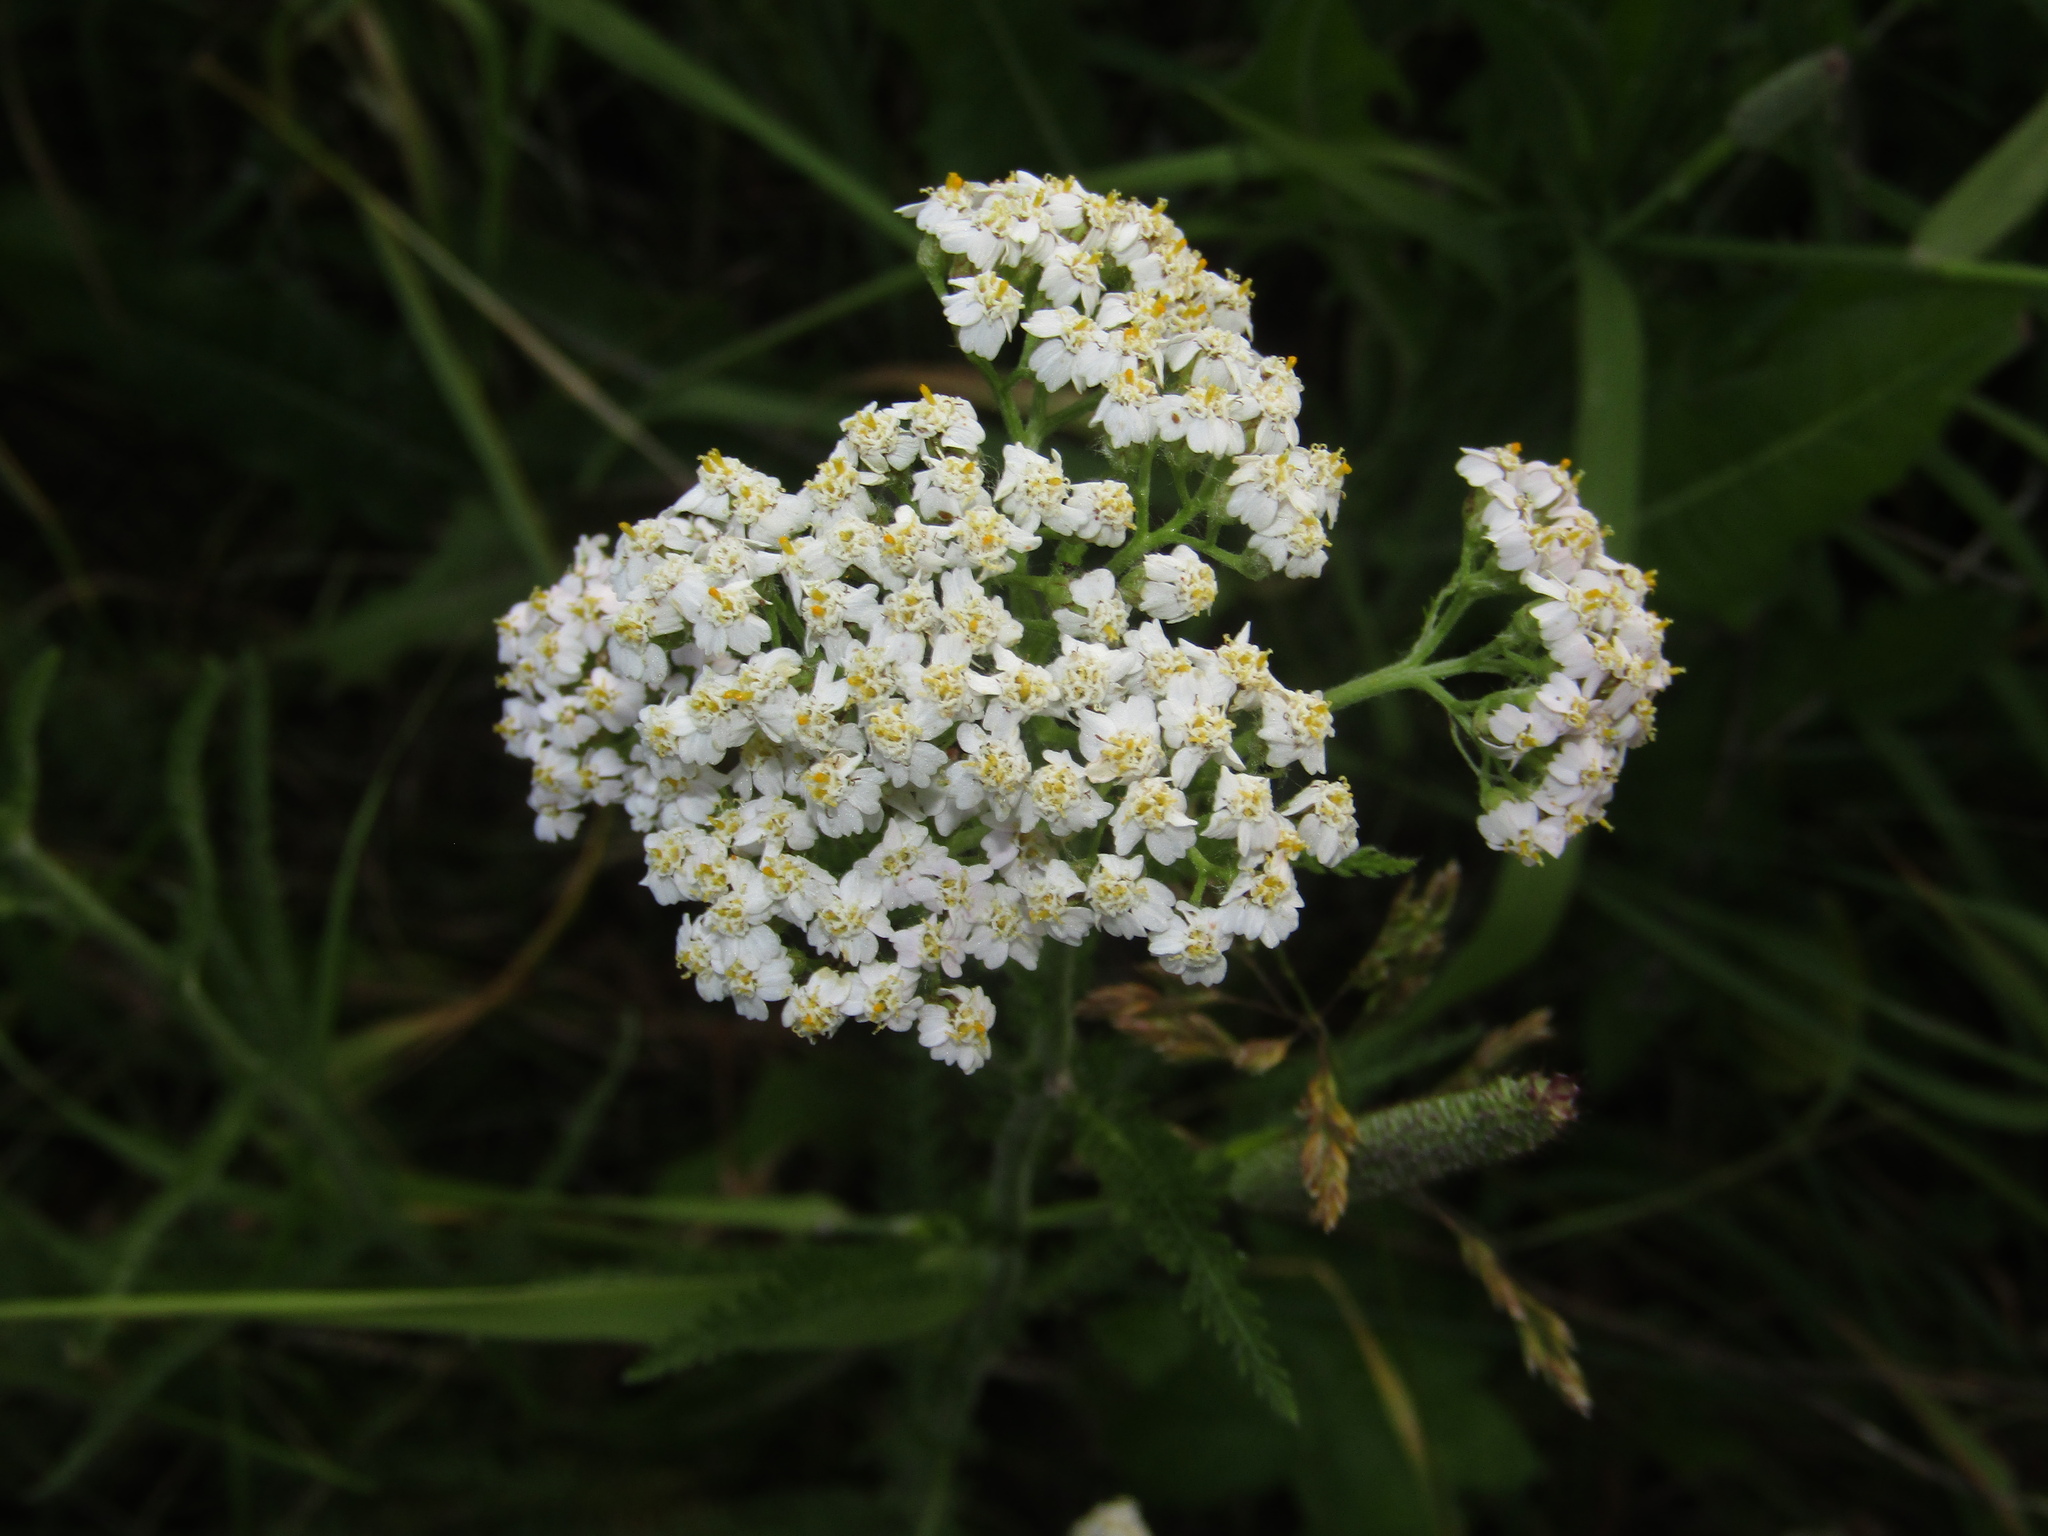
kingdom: Plantae
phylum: Tracheophyta
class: Magnoliopsida
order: Asterales
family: Asteraceae
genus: Achillea
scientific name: Achillea millefolium
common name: Yarrow
